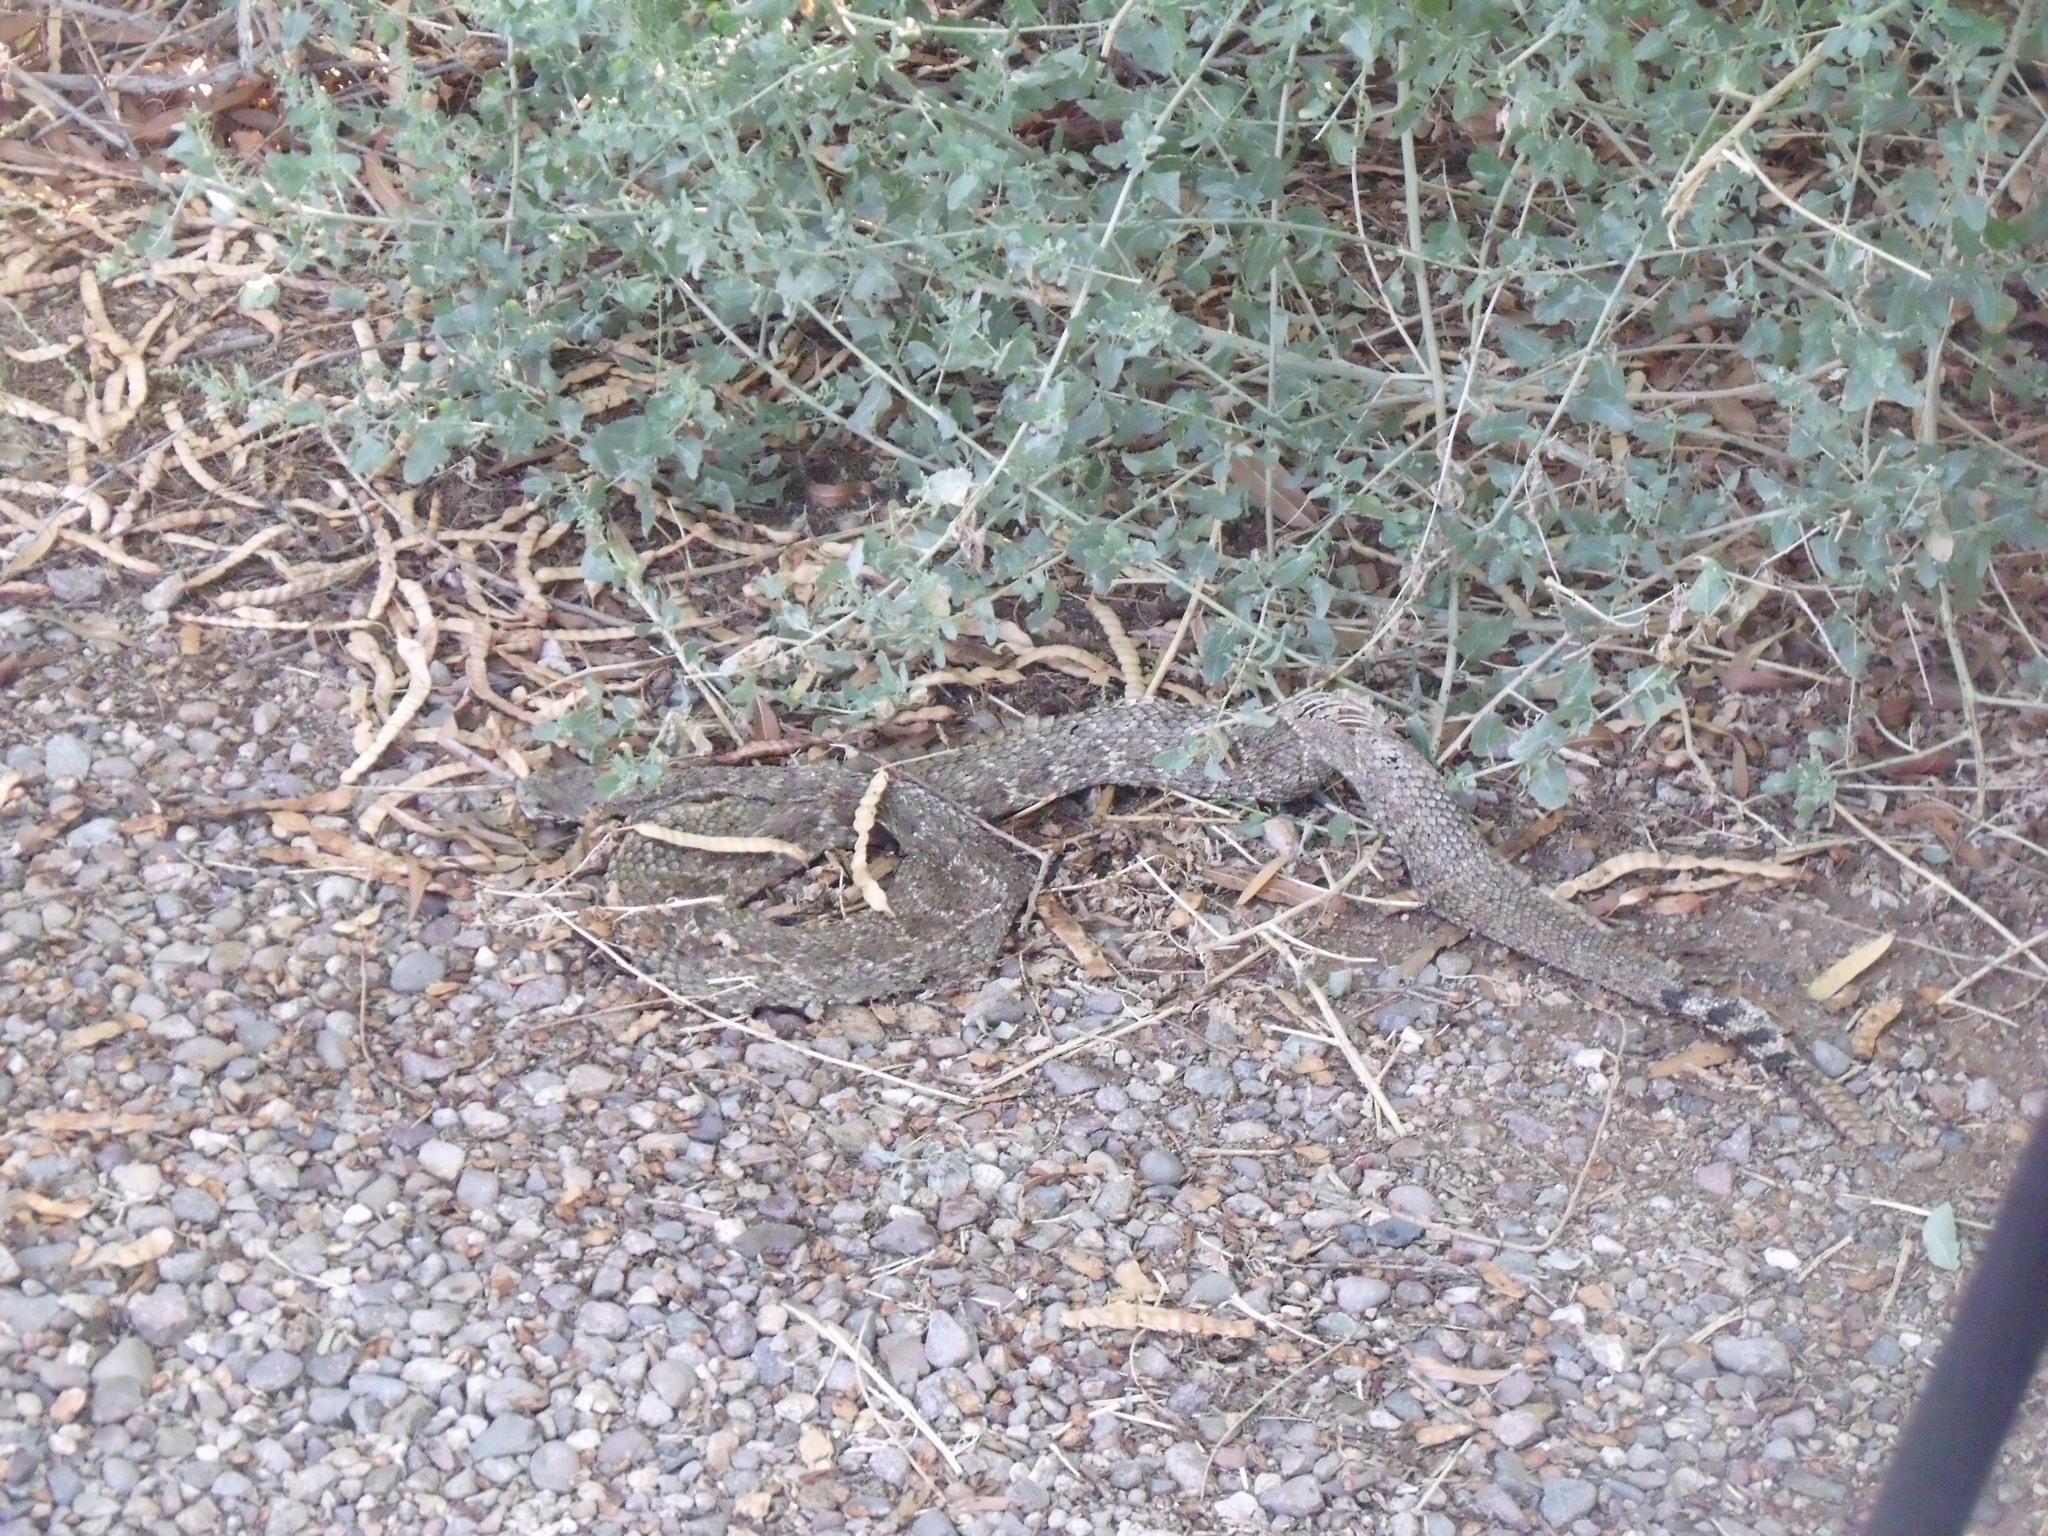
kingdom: Animalia
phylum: Chordata
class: Squamata
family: Viperidae
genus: Crotalus
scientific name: Crotalus atrox
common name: Western diamond-backed rattlesnake
